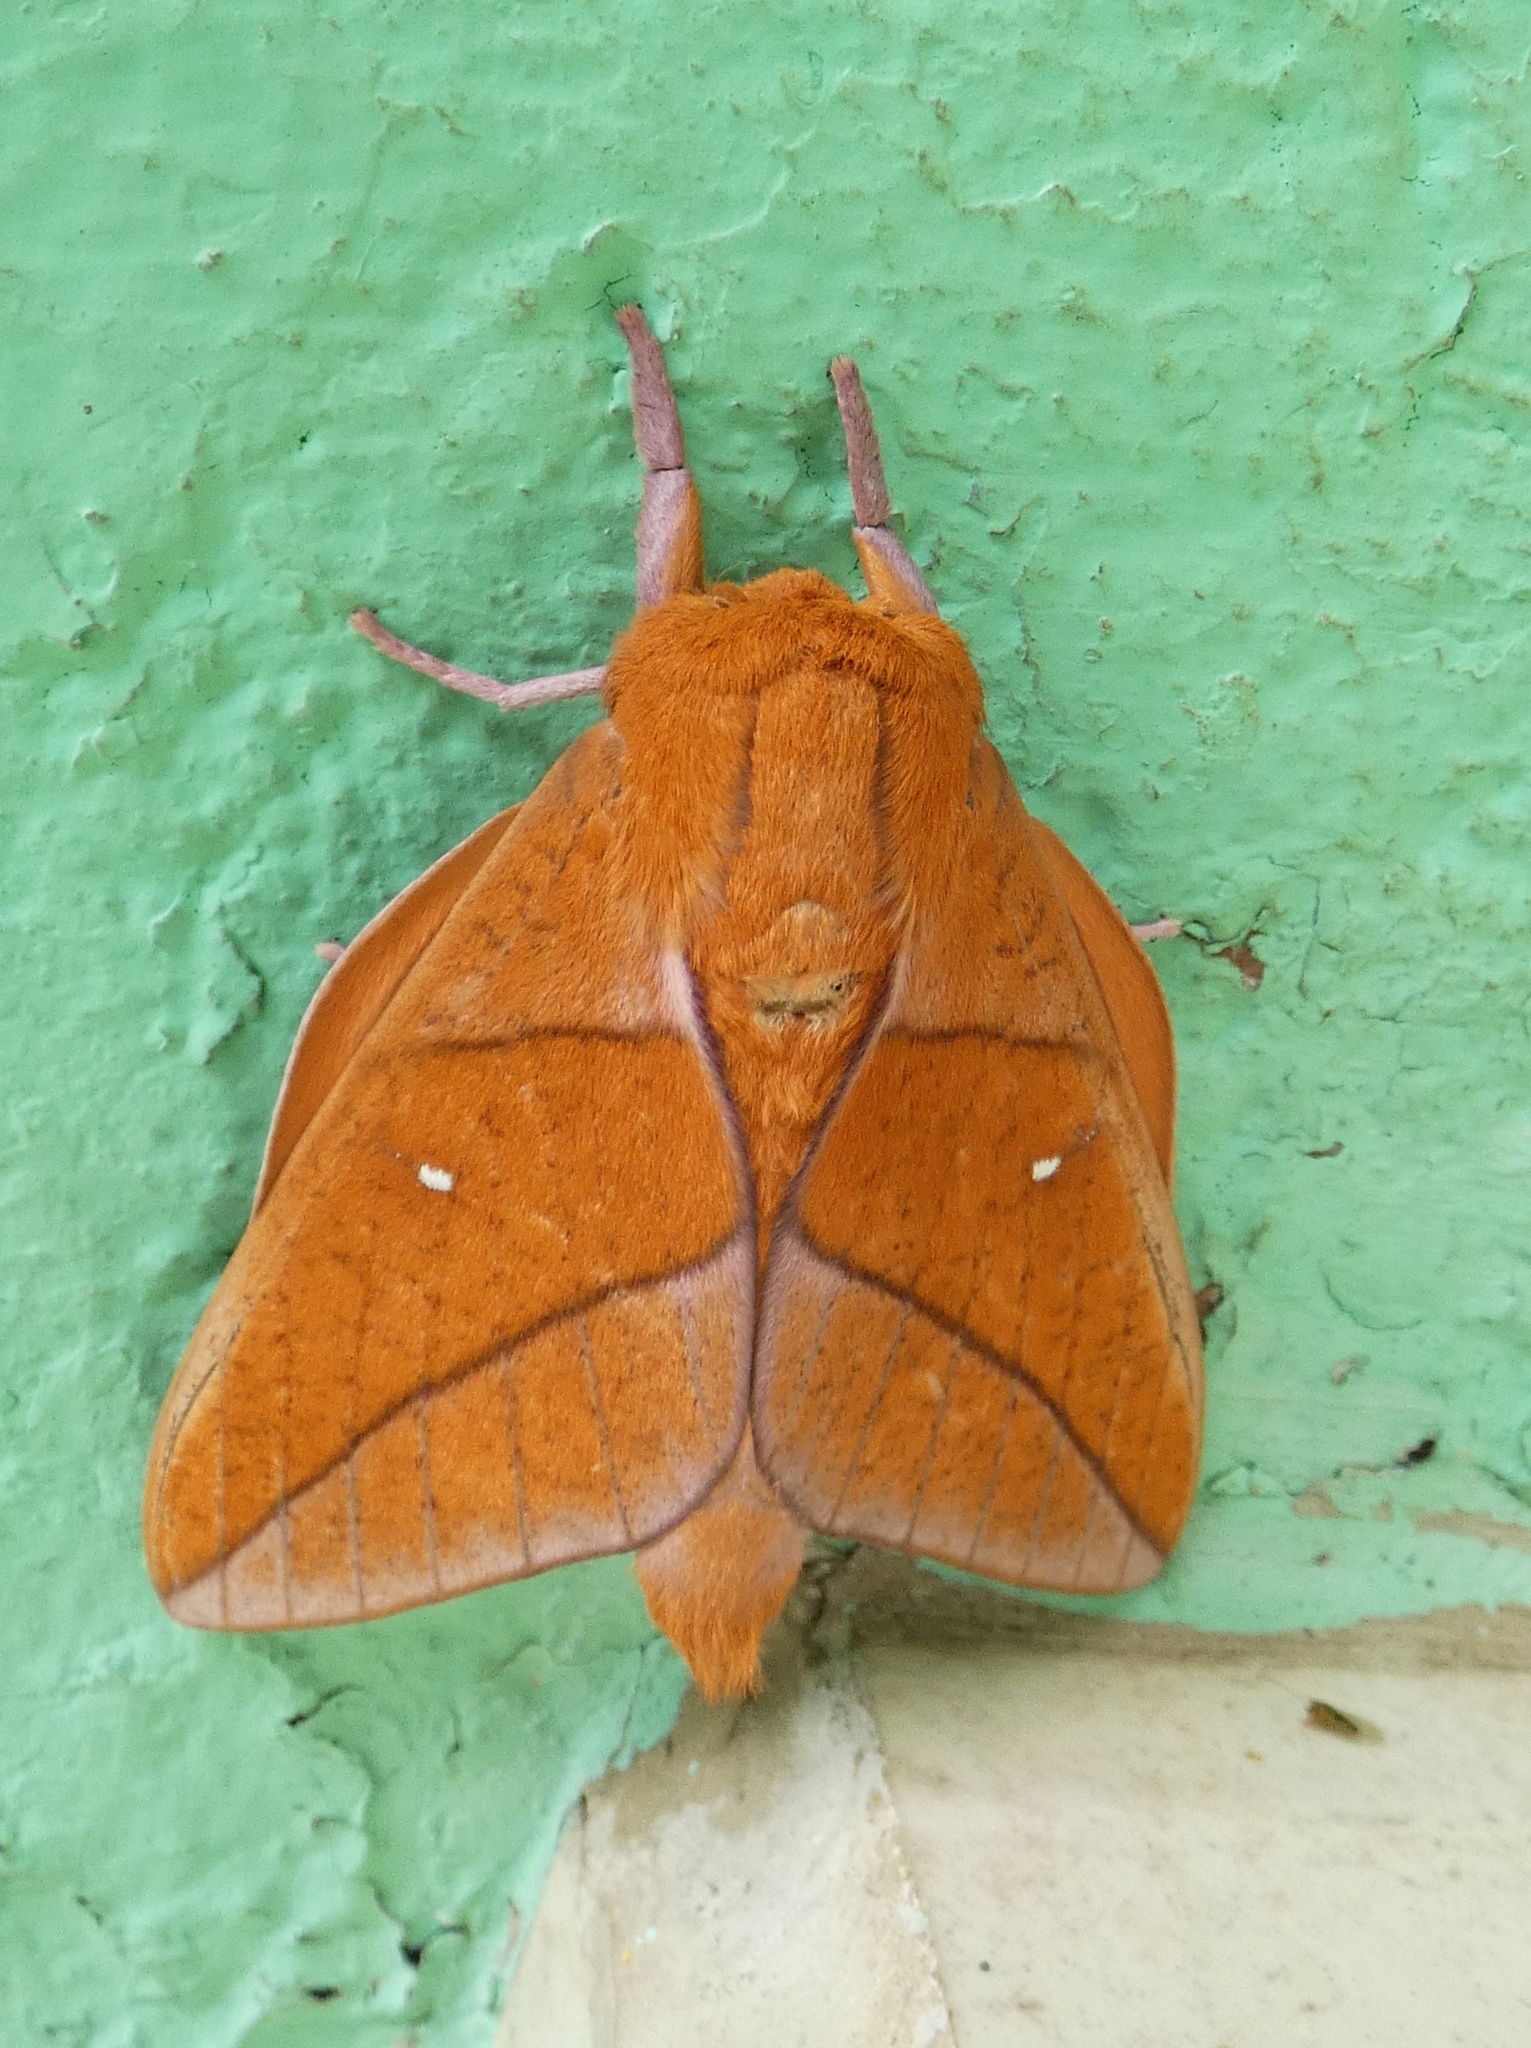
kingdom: Animalia
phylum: Arthropoda
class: Insecta
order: Lepidoptera
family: Saturniidae
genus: Adeloneivaia
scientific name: Adeloneivaia boisduvalii
